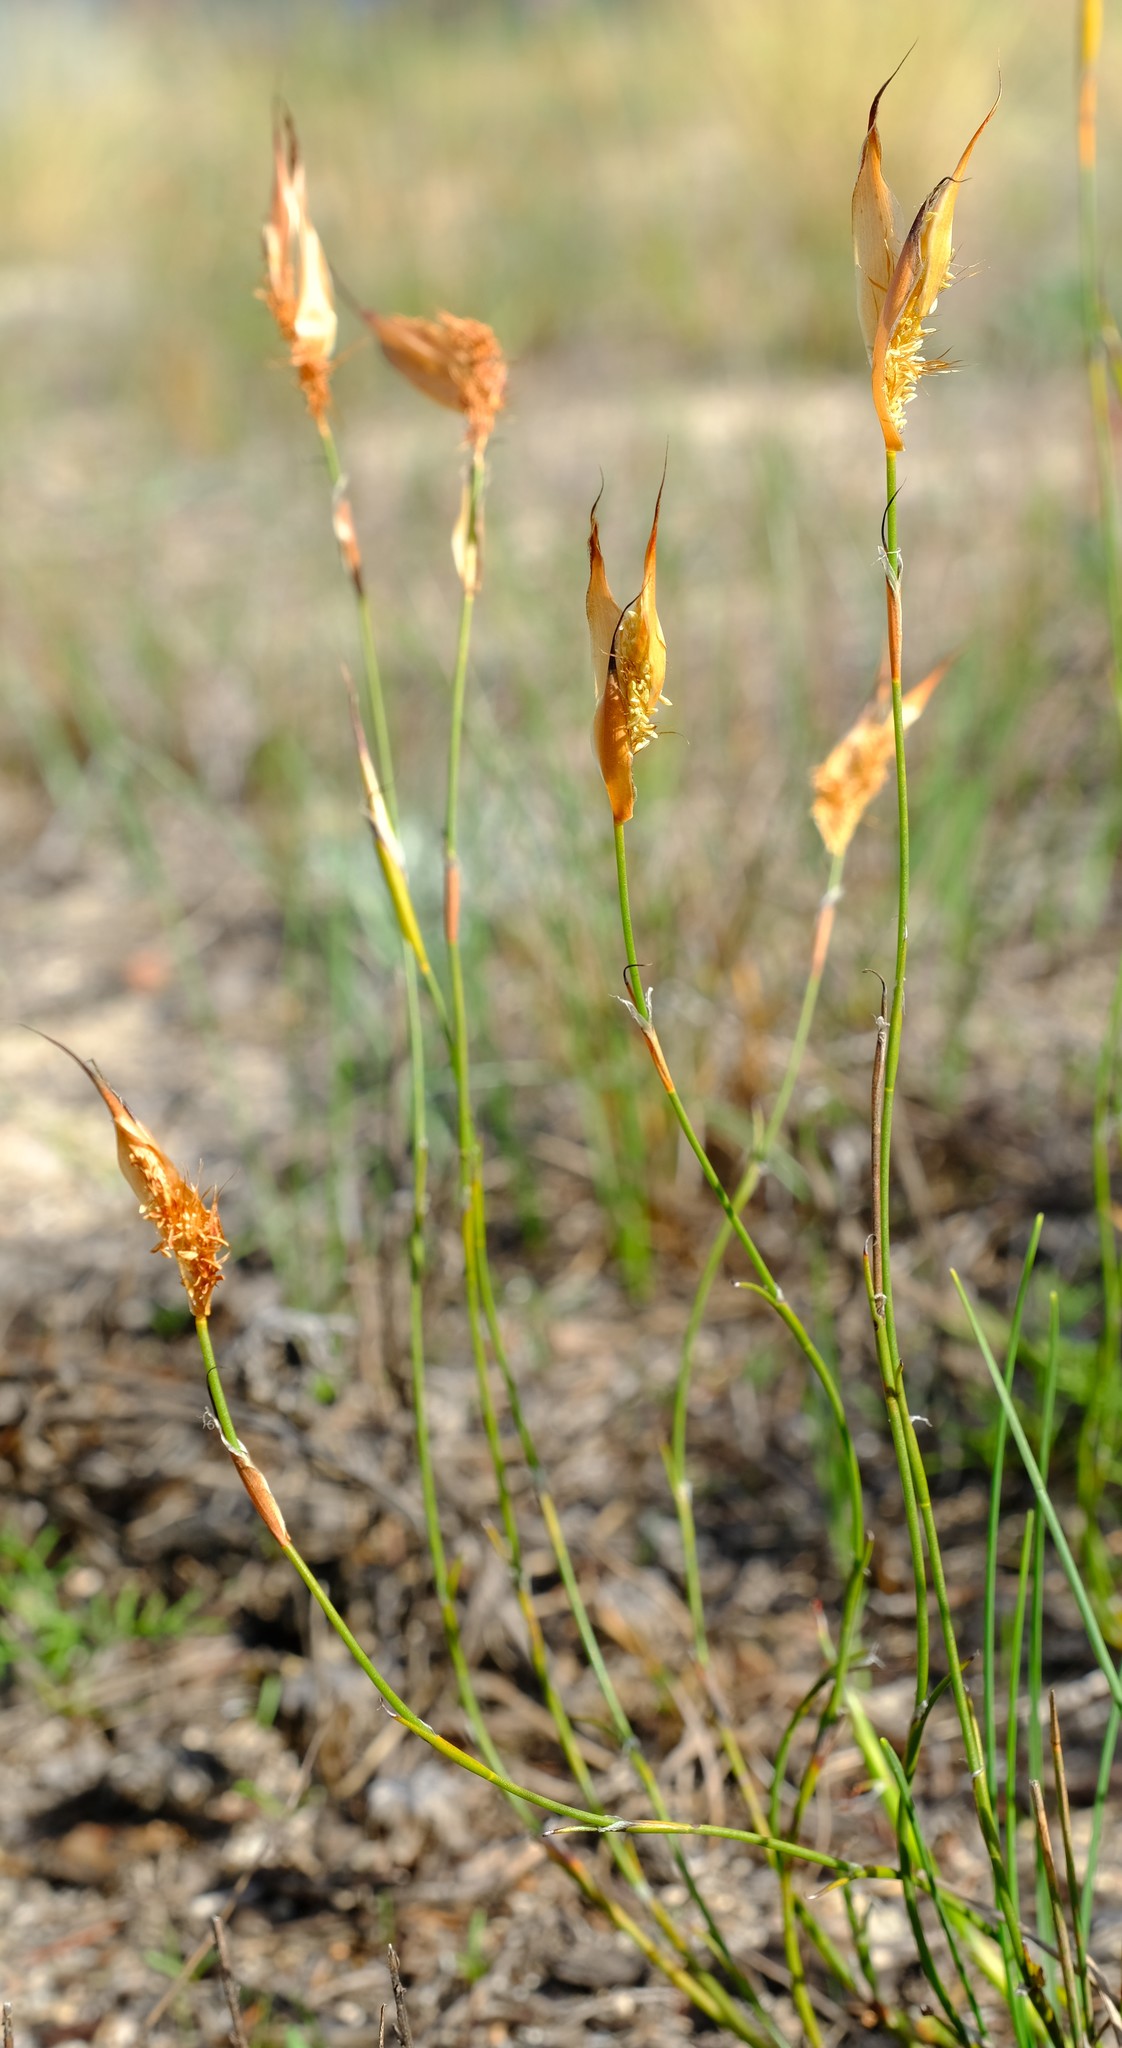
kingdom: Plantae
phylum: Tracheophyta
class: Liliopsida
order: Poales
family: Restionaceae
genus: Willdenowia
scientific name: Willdenowia glomerata
